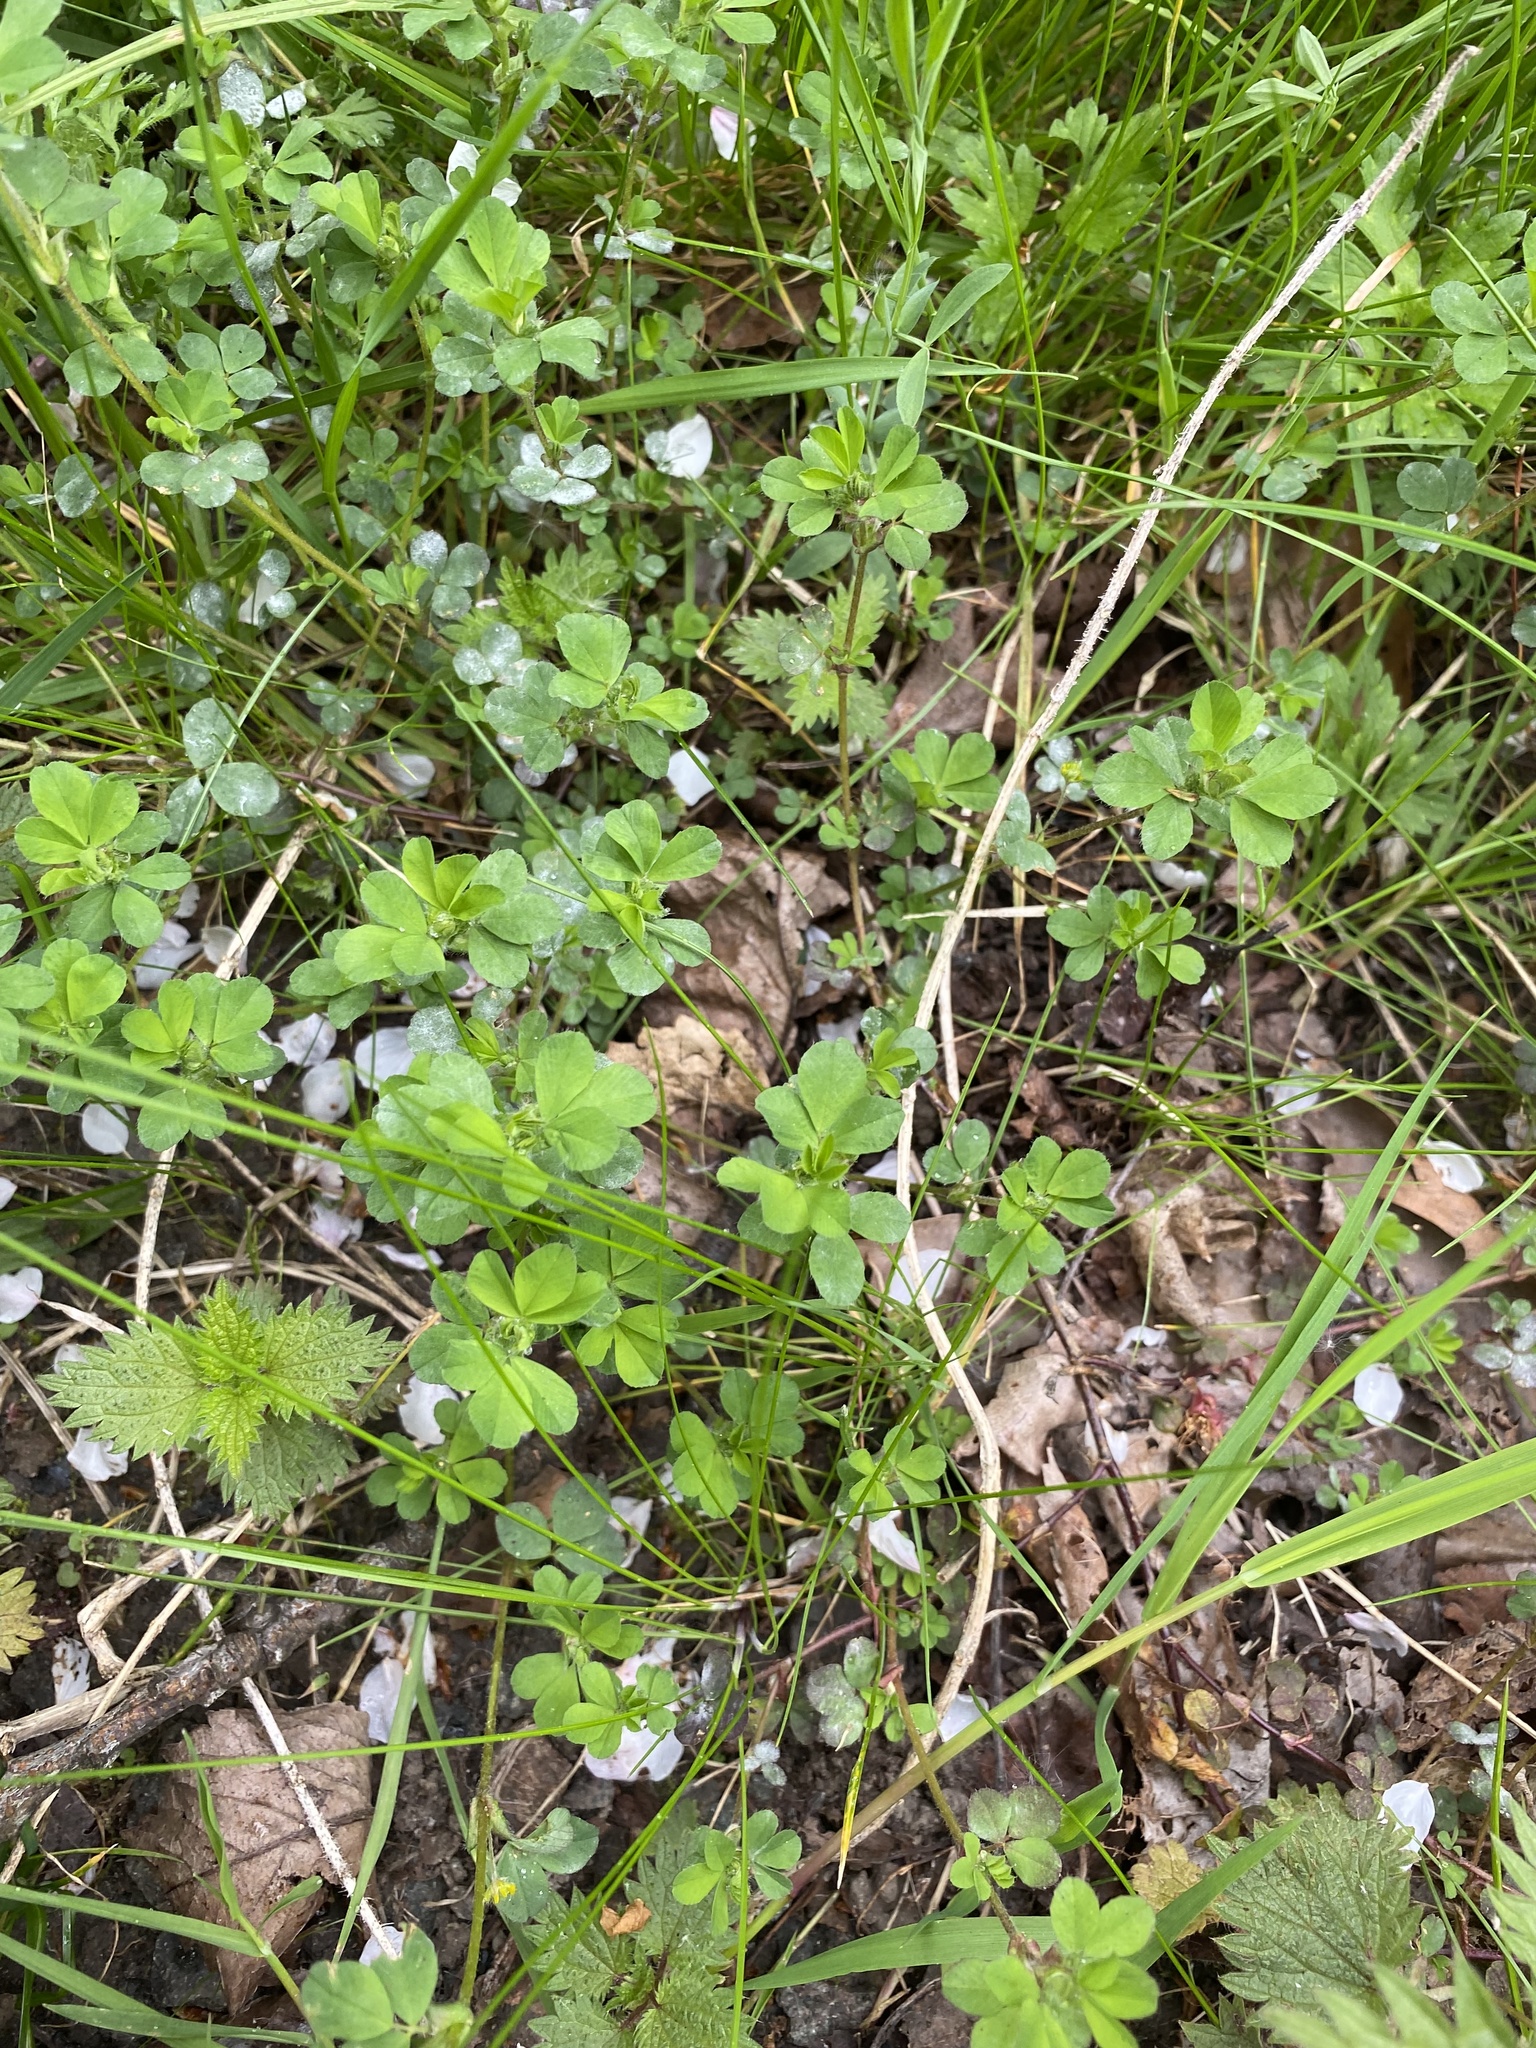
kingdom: Plantae
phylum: Tracheophyta
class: Magnoliopsida
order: Fabales
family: Fabaceae
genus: Trifolium
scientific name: Trifolium dubium
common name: Suckling clover
